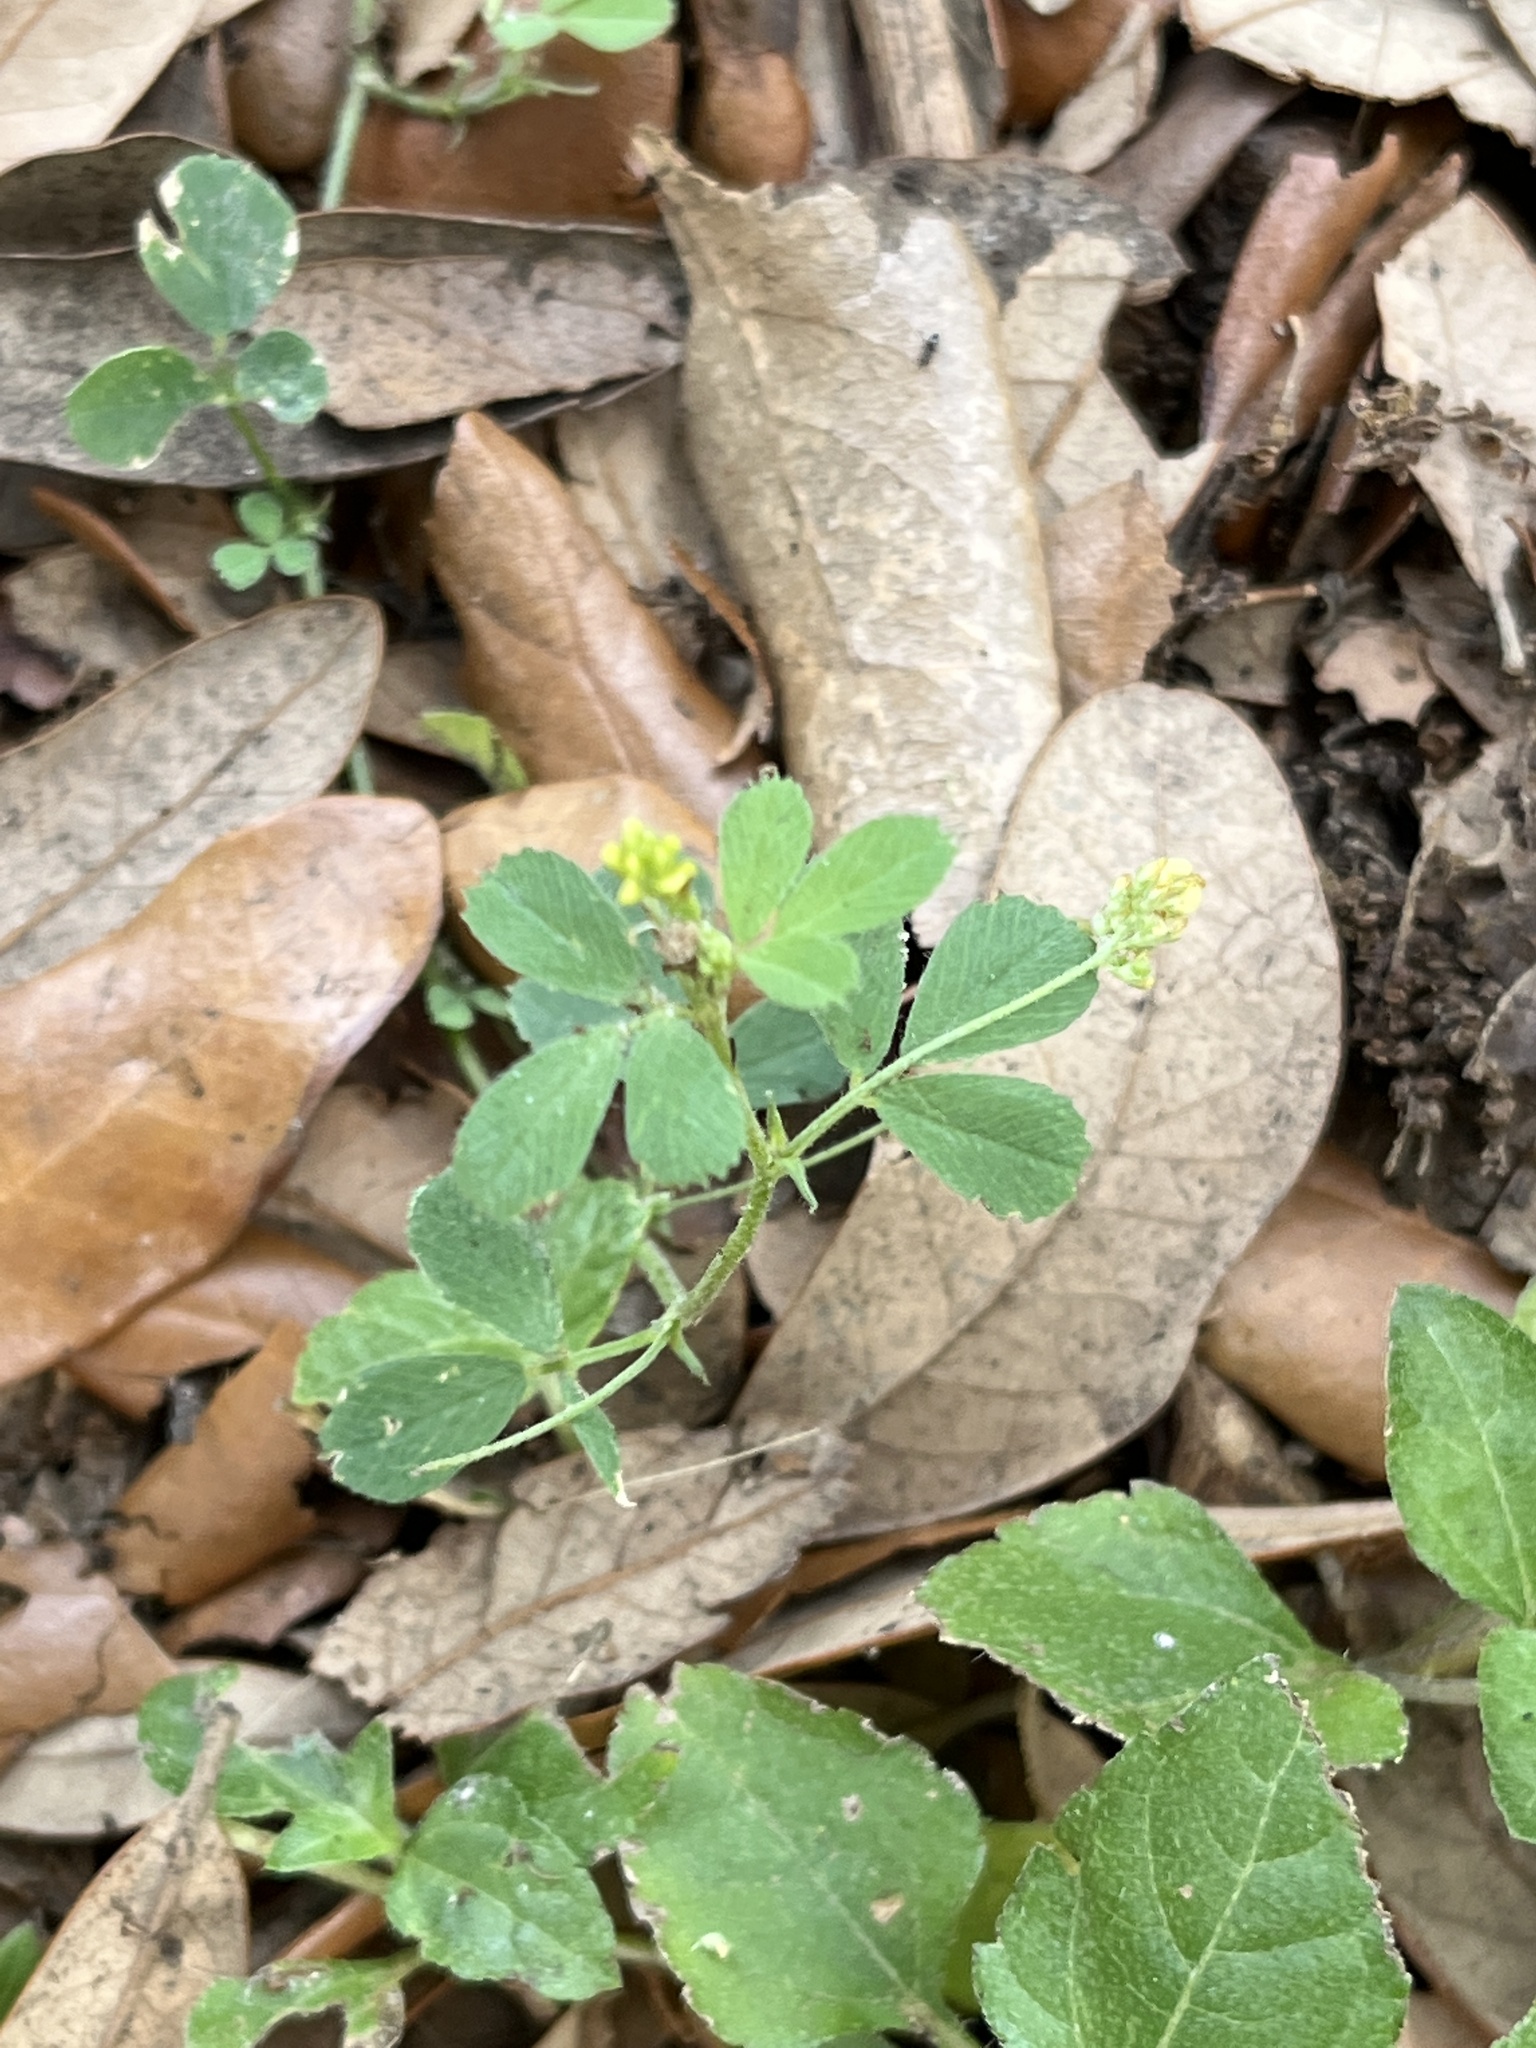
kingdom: Plantae
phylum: Tracheophyta
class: Magnoliopsida
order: Fabales
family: Fabaceae
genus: Medicago
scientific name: Medicago lupulina
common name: Black medick
